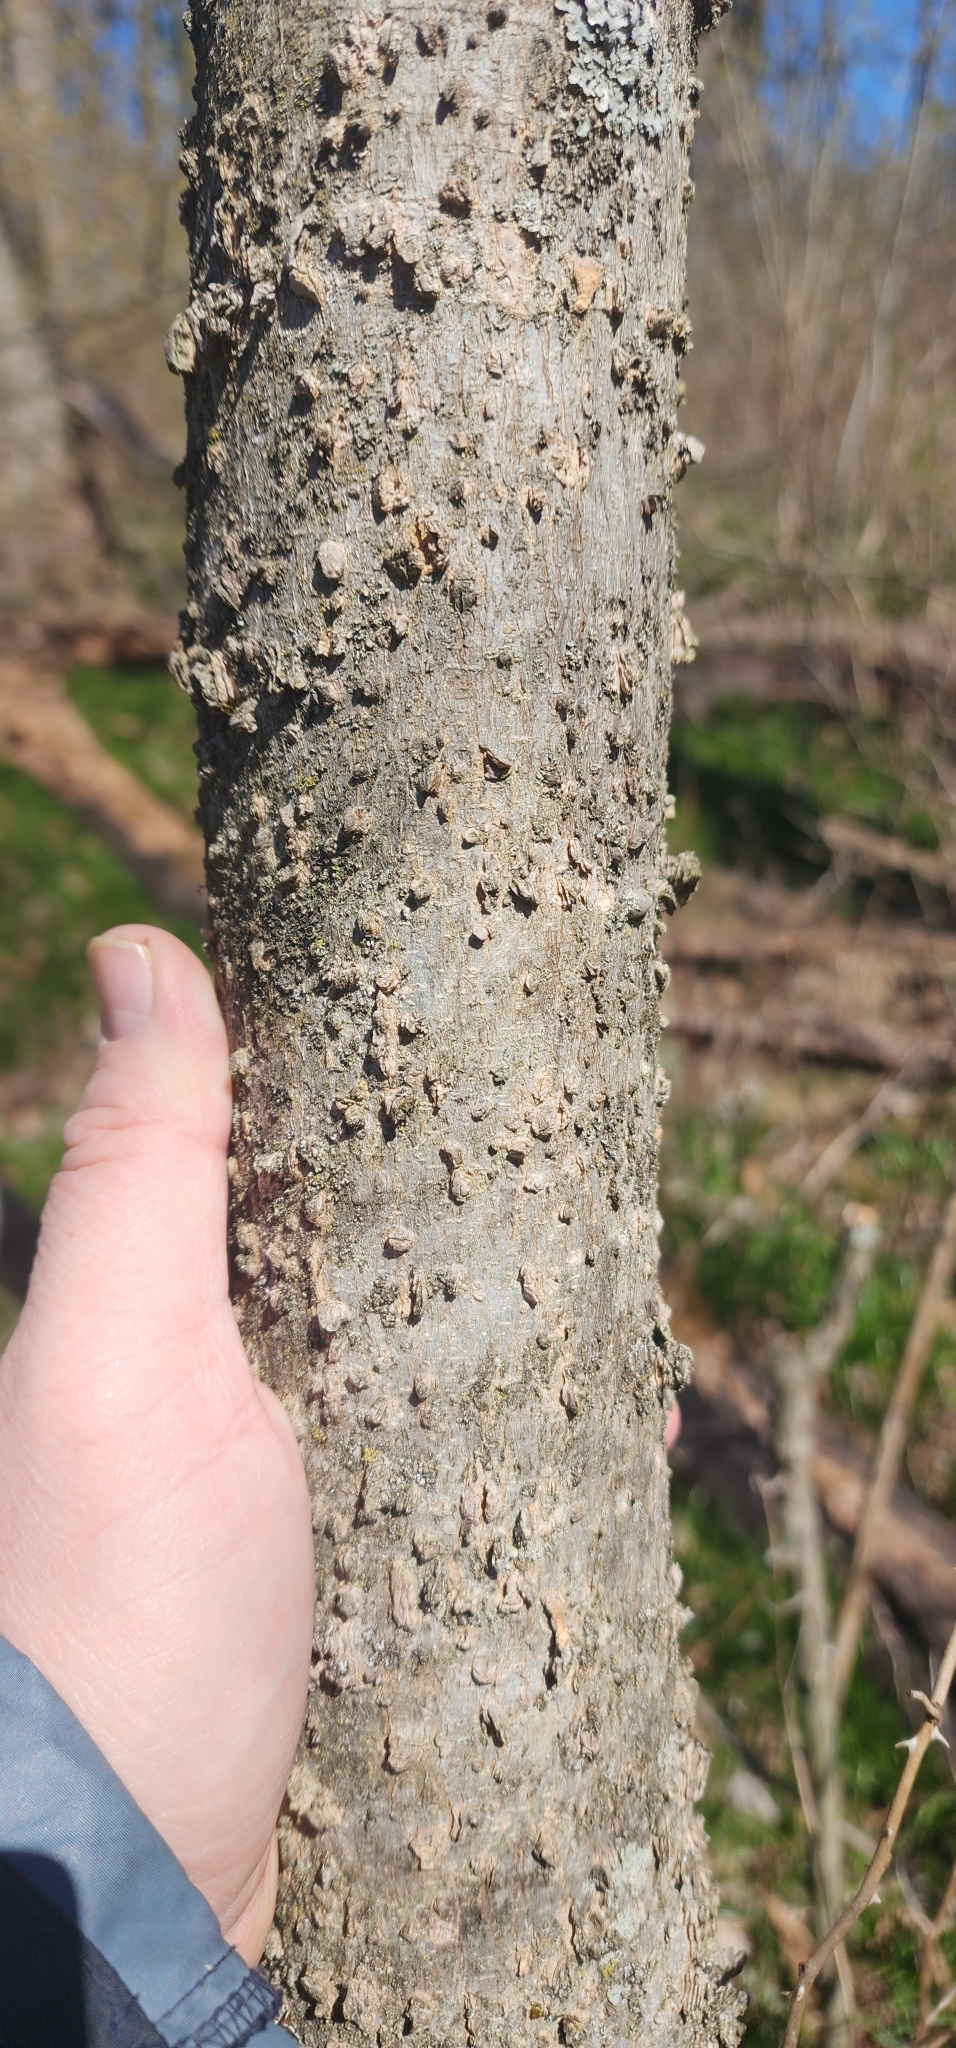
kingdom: Plantae
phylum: Tracheophyta
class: Magnoliopsida
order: Rosales
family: Cannabaceae
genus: Celtis
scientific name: Celtis occidentalis
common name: Common hackberry
